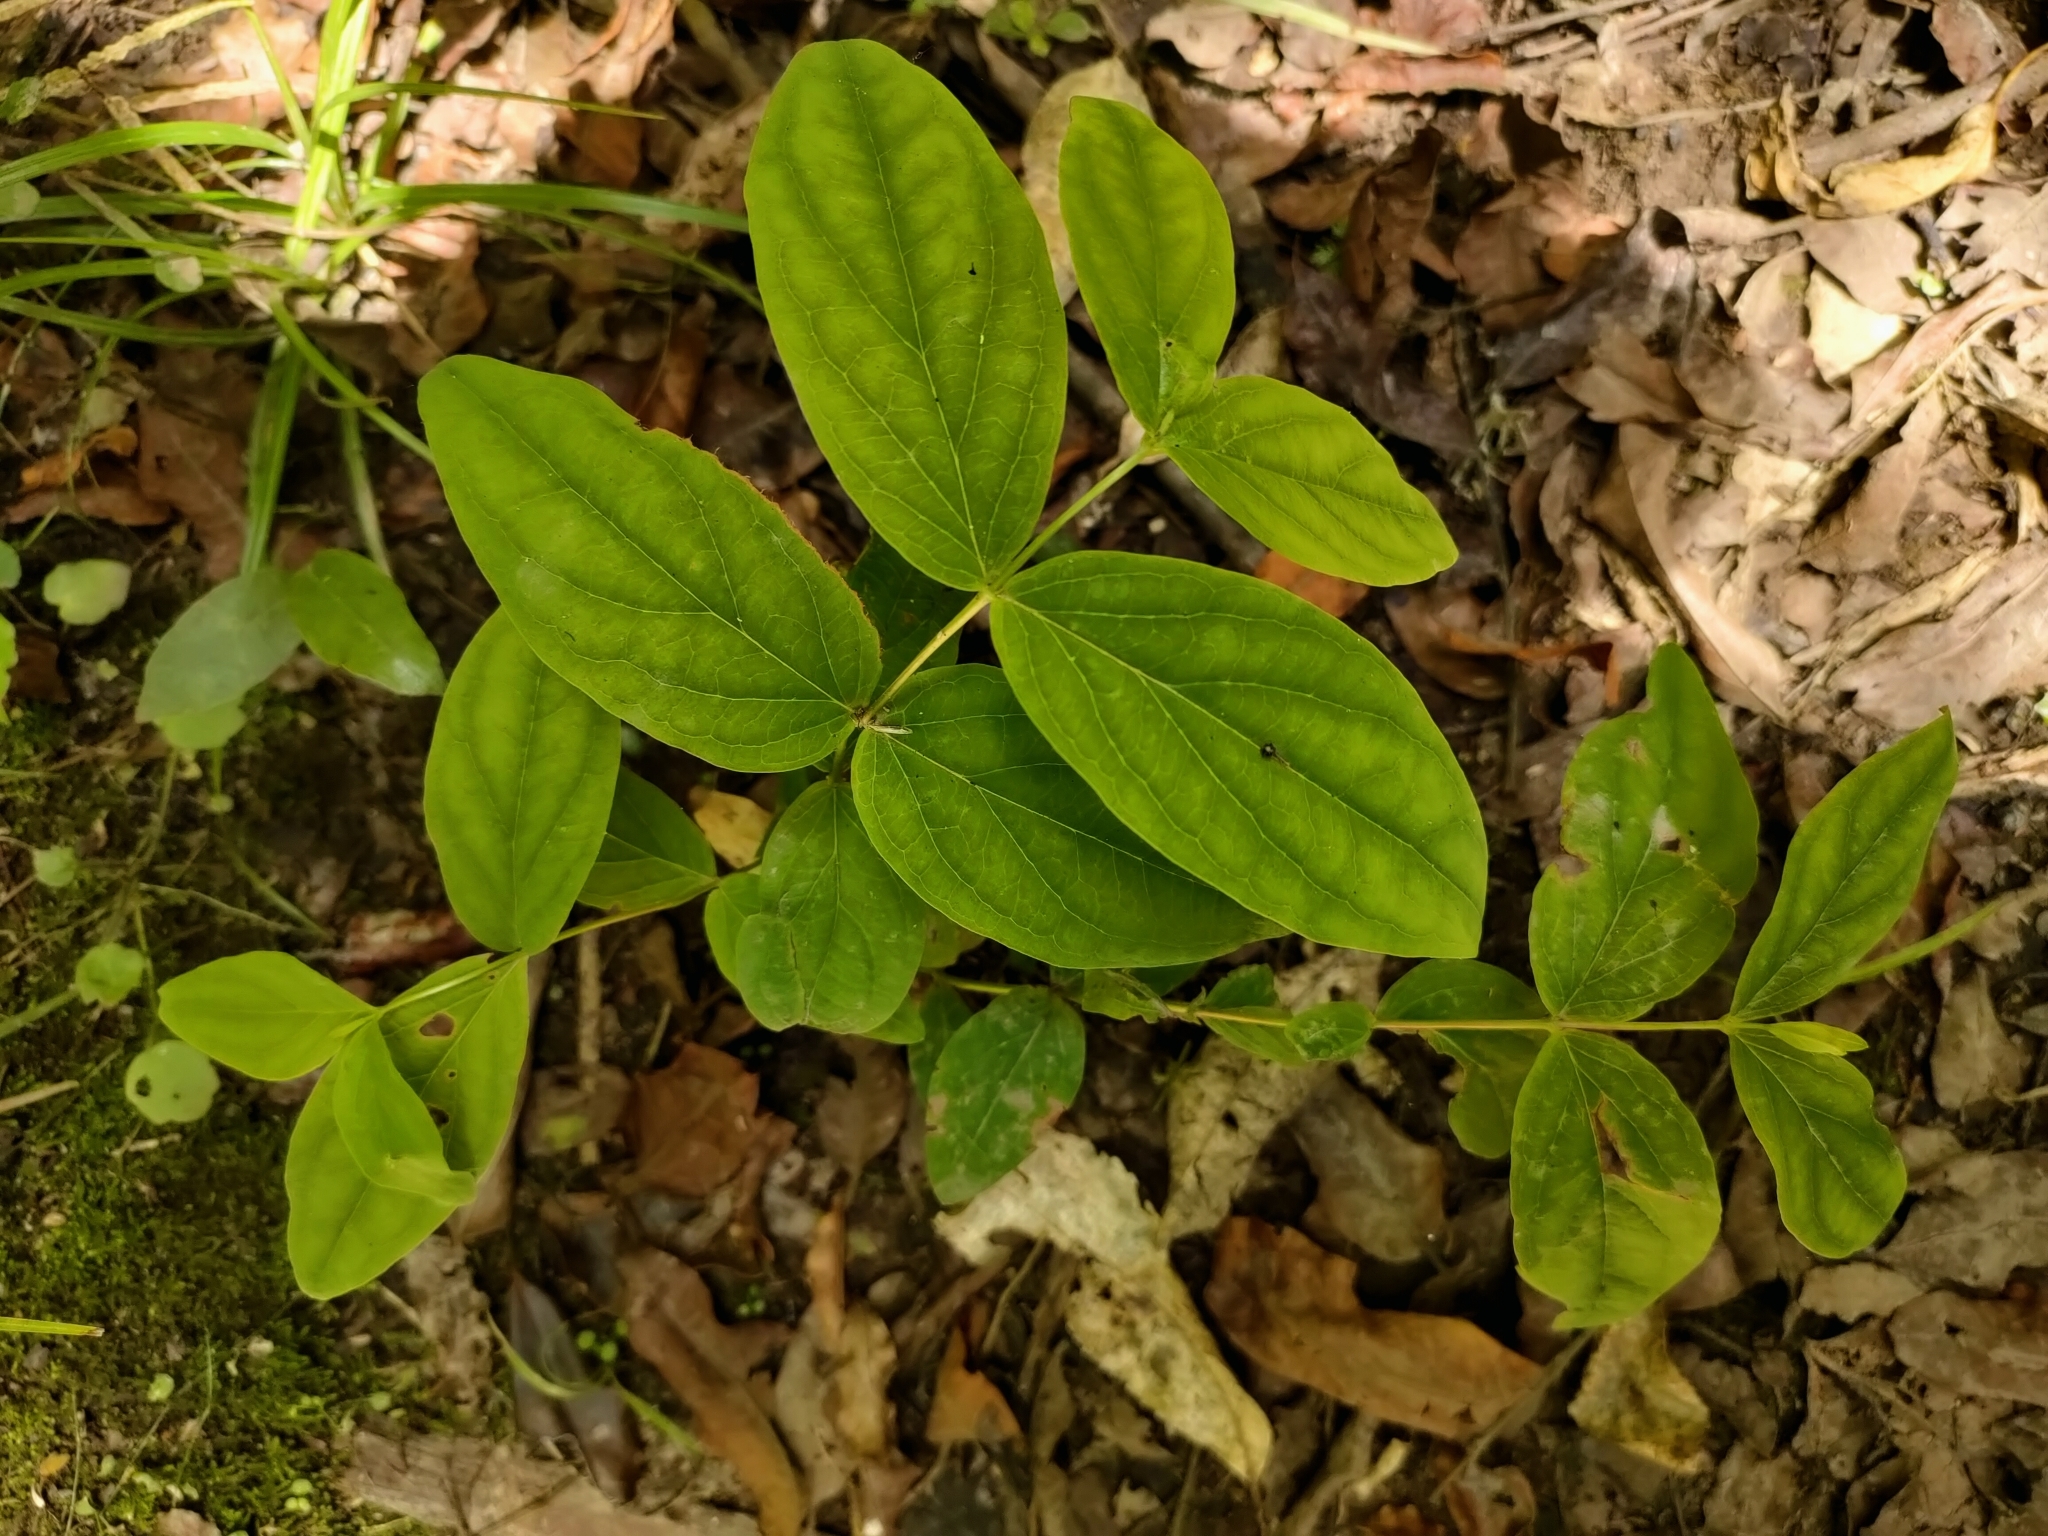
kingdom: Plantae
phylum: Tracheophyta
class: Magnoliopsida
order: Malpighiales
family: Hypericaceae
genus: Hypericum
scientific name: Hypericum androsaemum
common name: Sweet-amber
